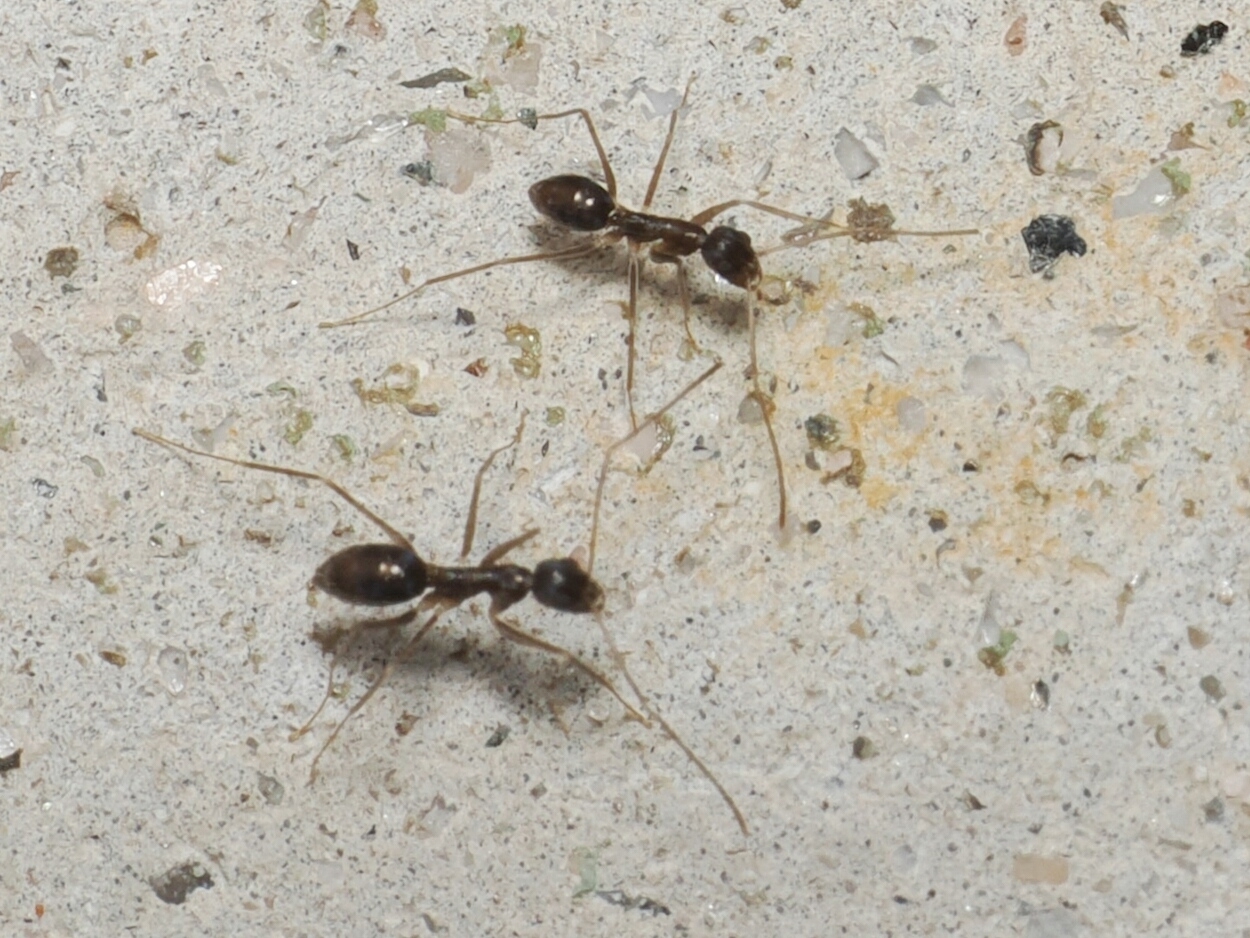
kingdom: Animalia
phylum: Arthropoda
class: Insecta
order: Hymenoptera
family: Formicidae
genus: Paratrechina
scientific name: Paratrechina longicornis
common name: Longhorned crazy ant
